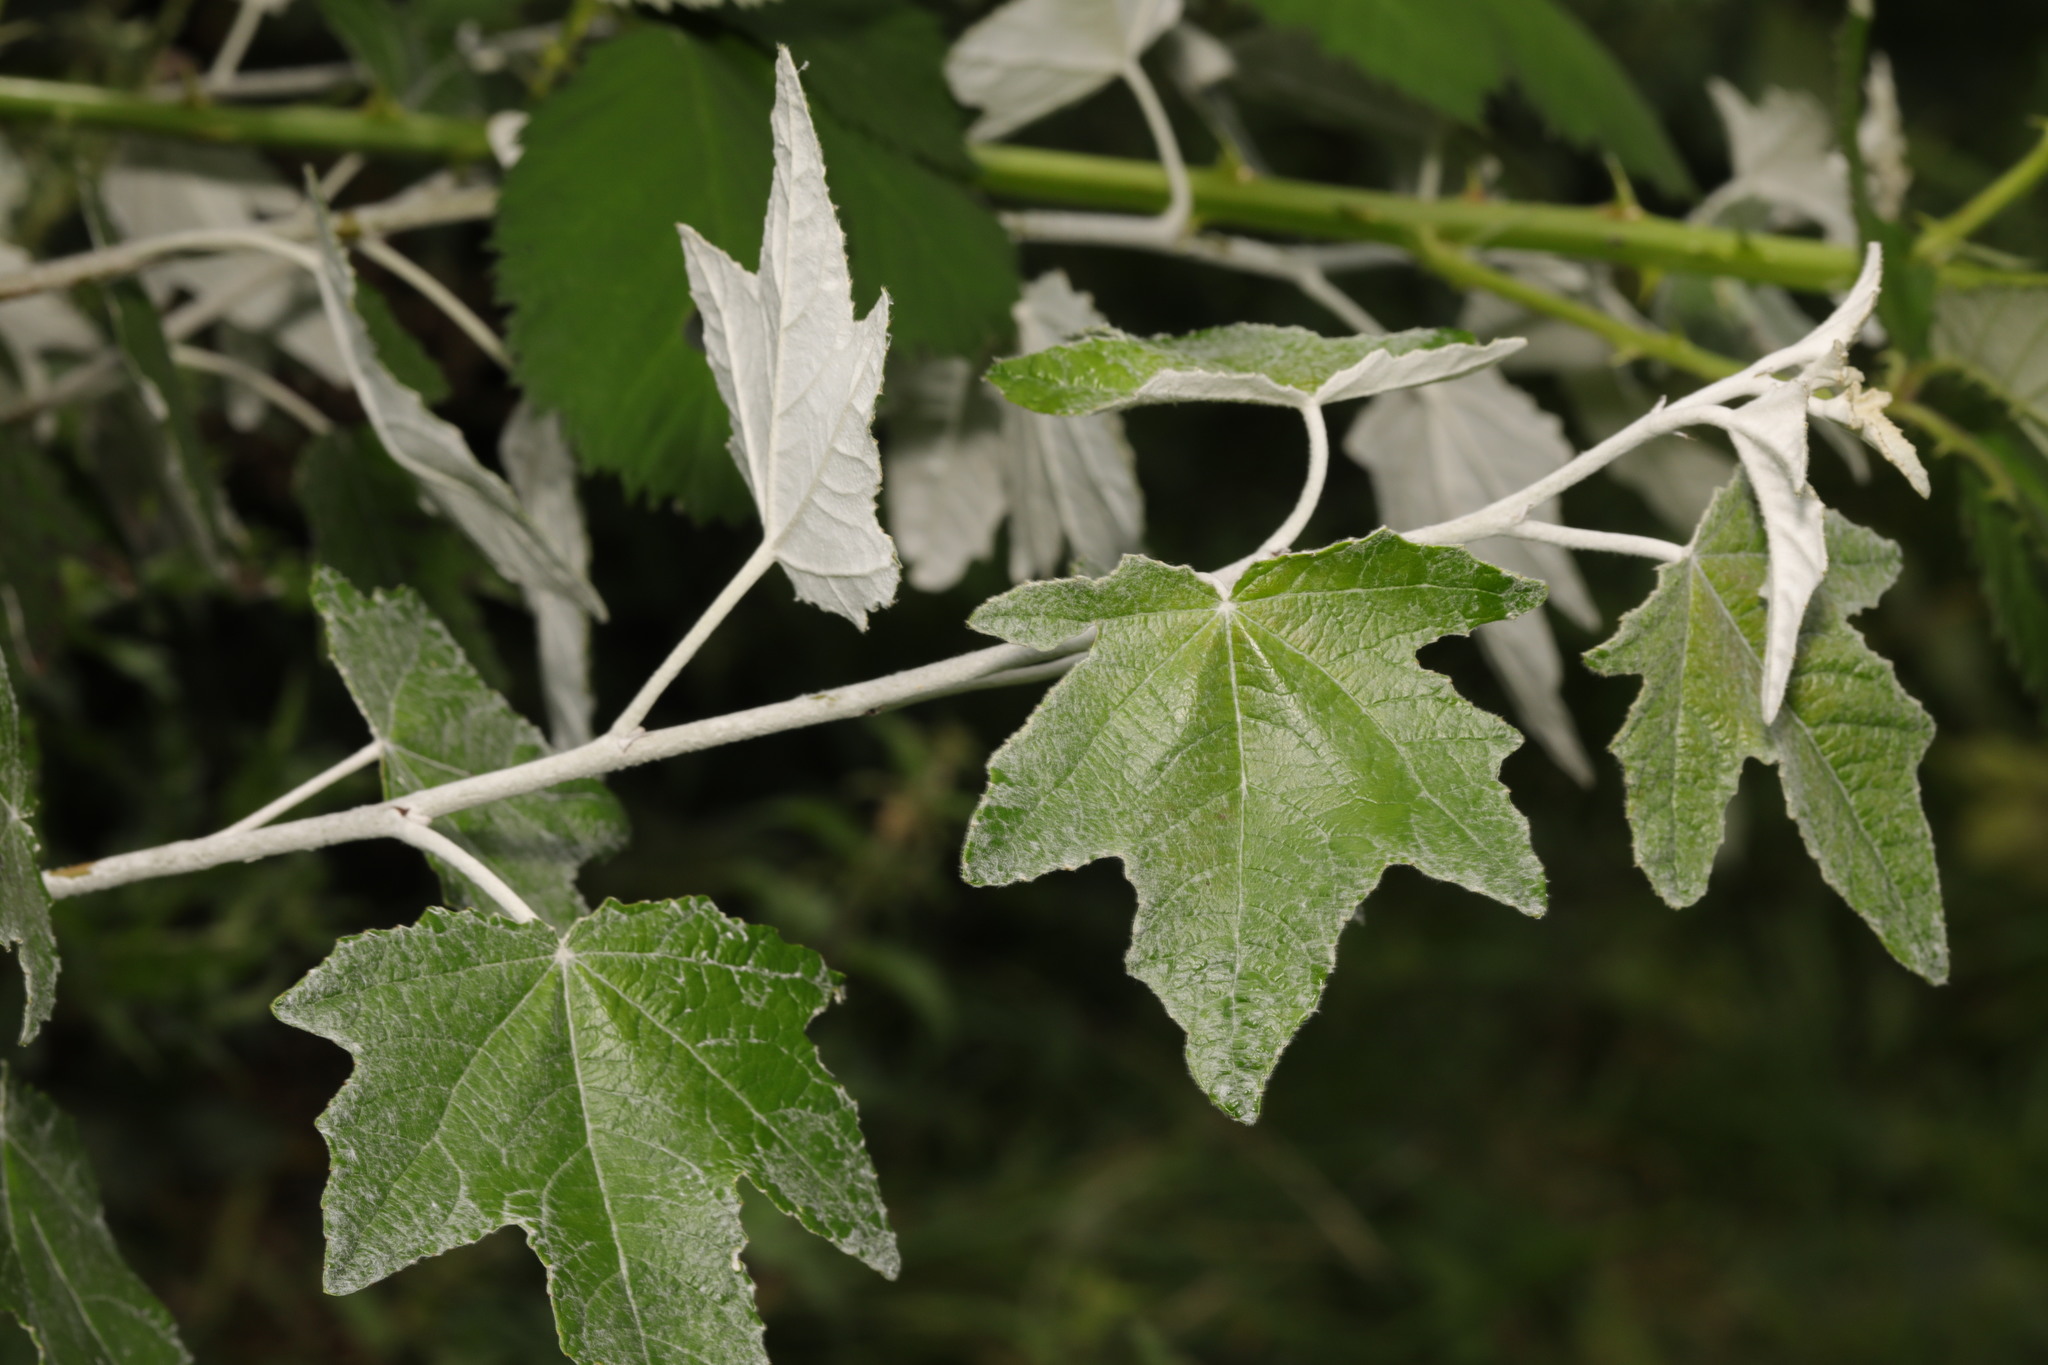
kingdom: Plantae
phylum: Tracheophyta
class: Magnoliopsida
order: Malpighiales
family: Salicaceae
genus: Populus
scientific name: Populus alba
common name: White poplar
